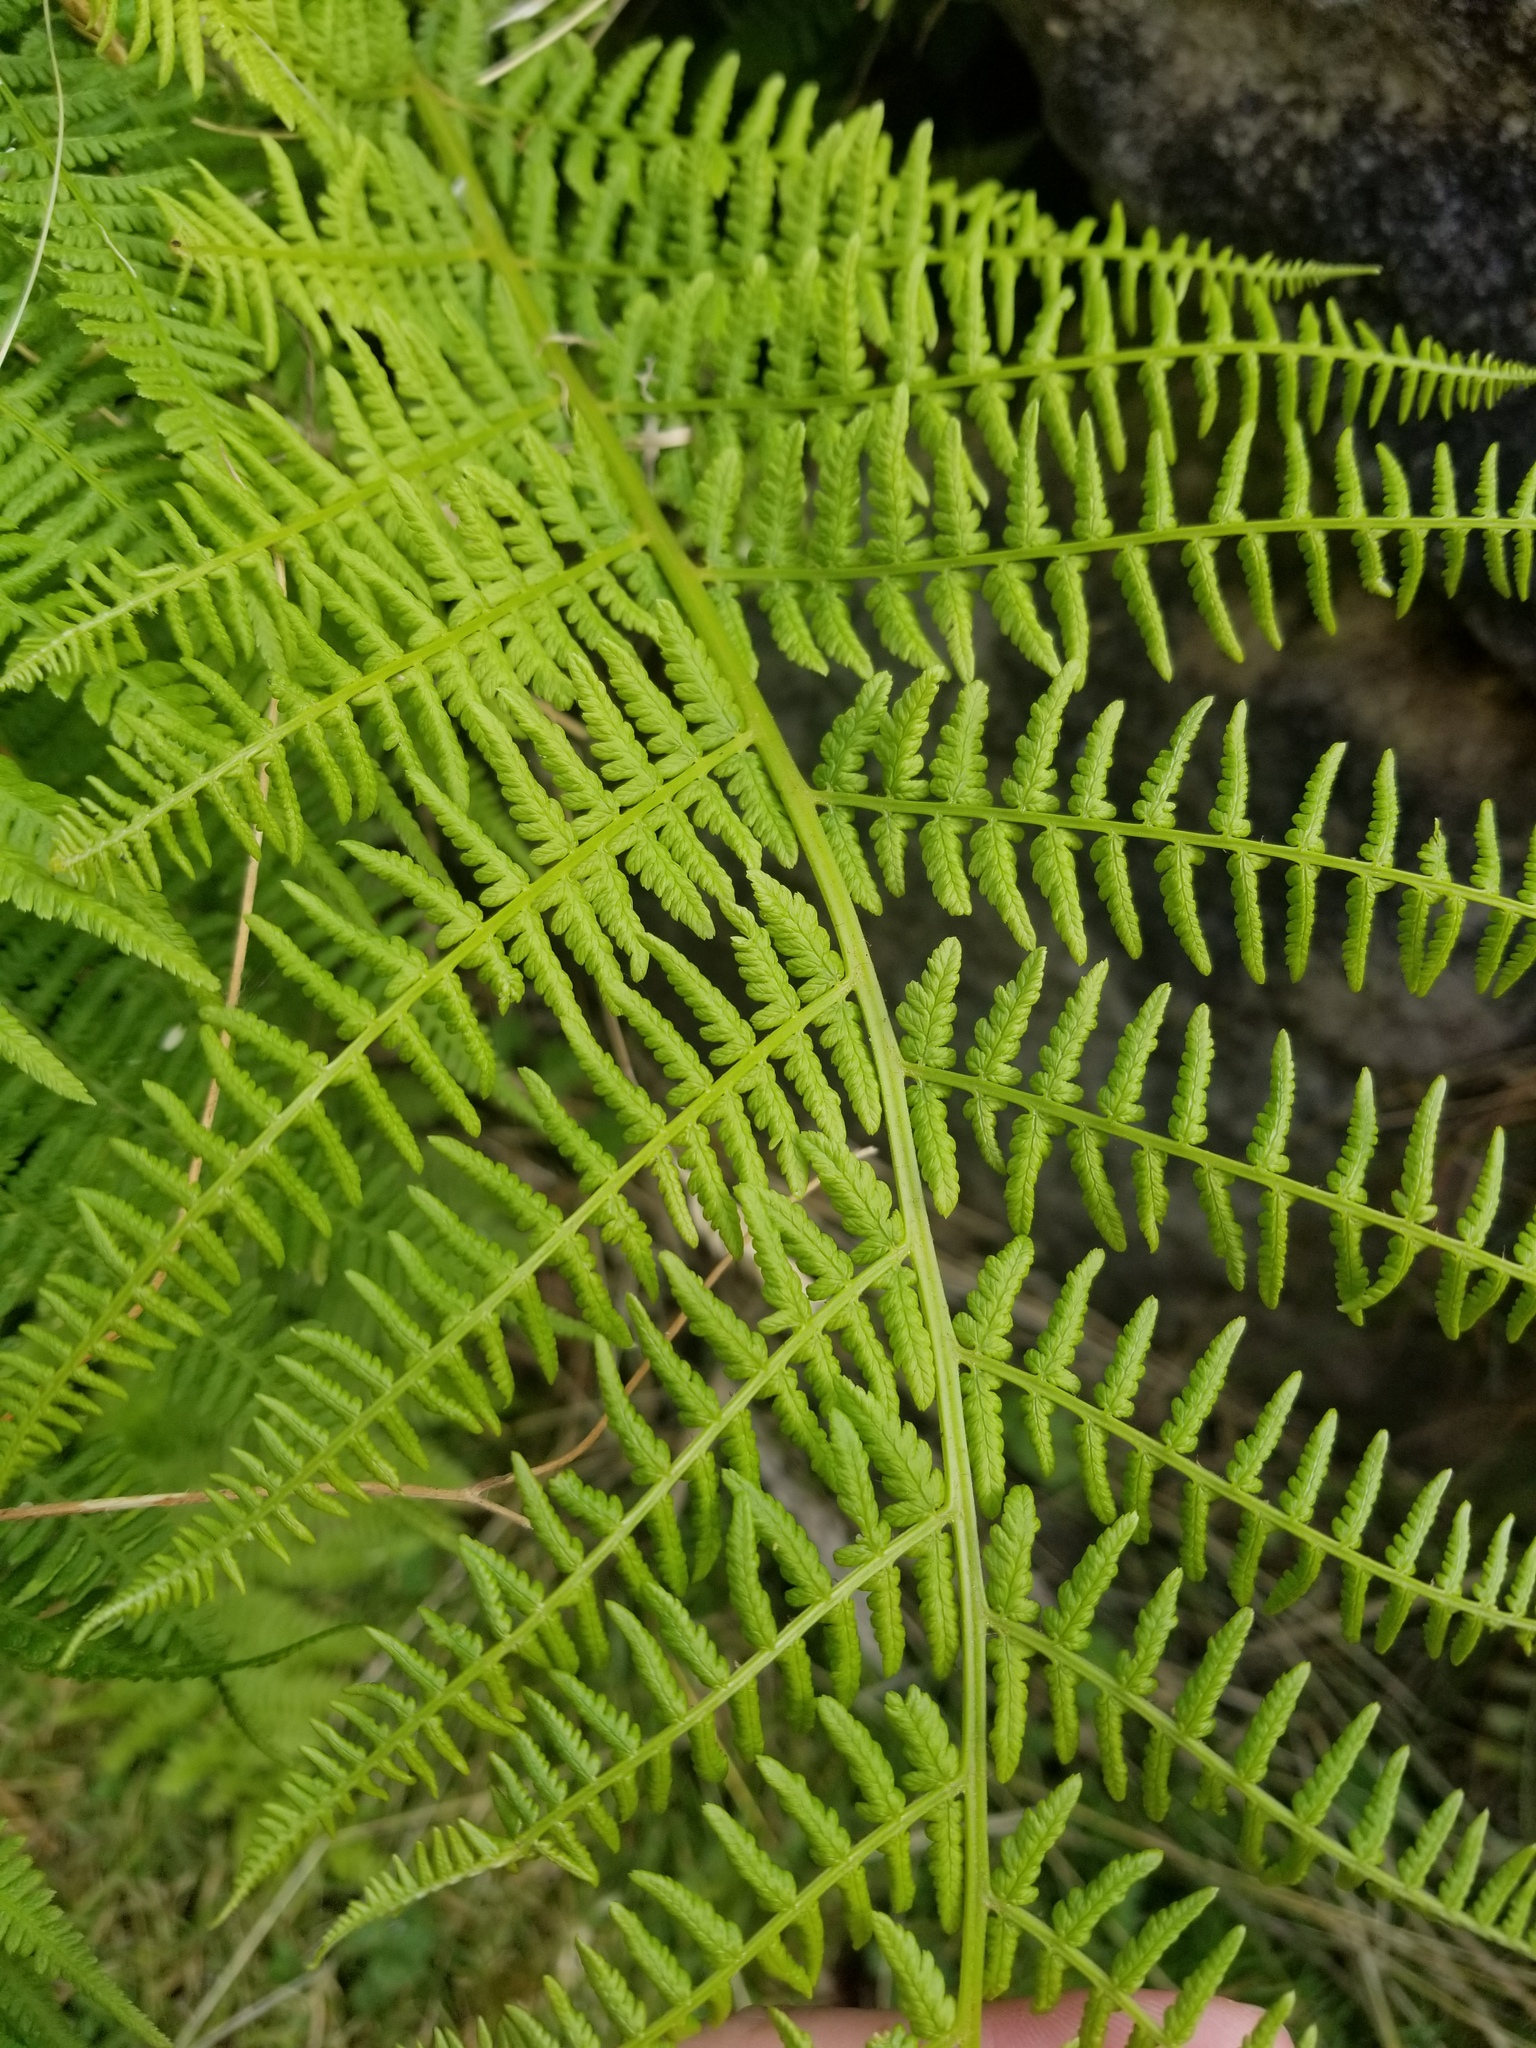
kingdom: Plantae
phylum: Tracheophyta
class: Polypodiopsida
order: Polypodiales
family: Athyriaceae
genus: Athyrium
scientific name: Athyrium filix-femina
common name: Lady fern
